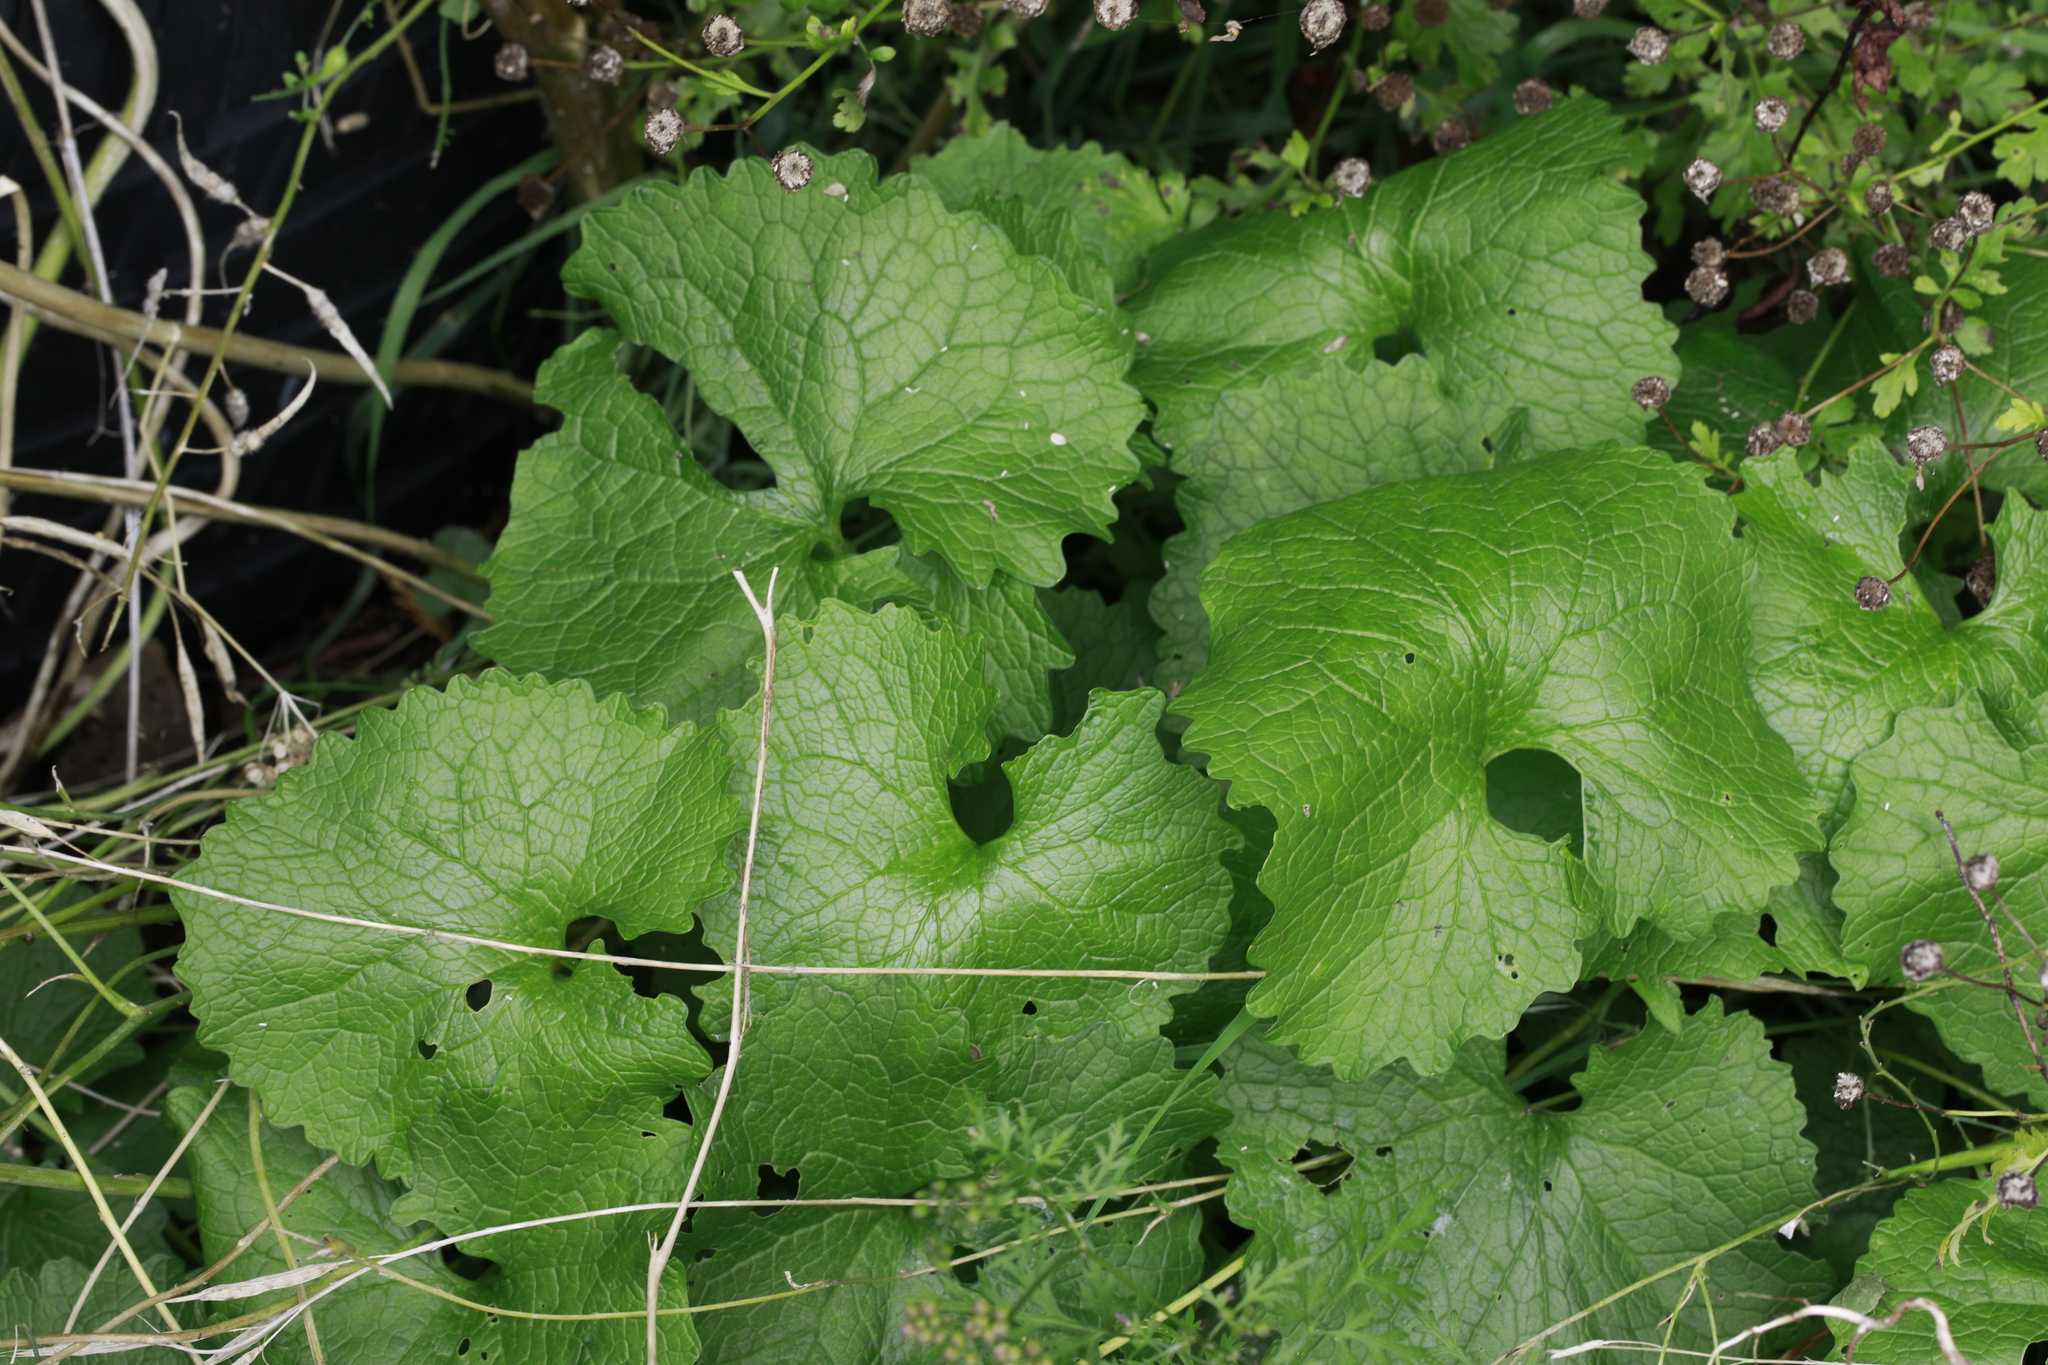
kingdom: Plantae
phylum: Tracheophyta
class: Magnoliopsida
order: Brassicales
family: Brassicaceae
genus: Alliaria
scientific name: Alliaria petiolata
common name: Garlic mustard
